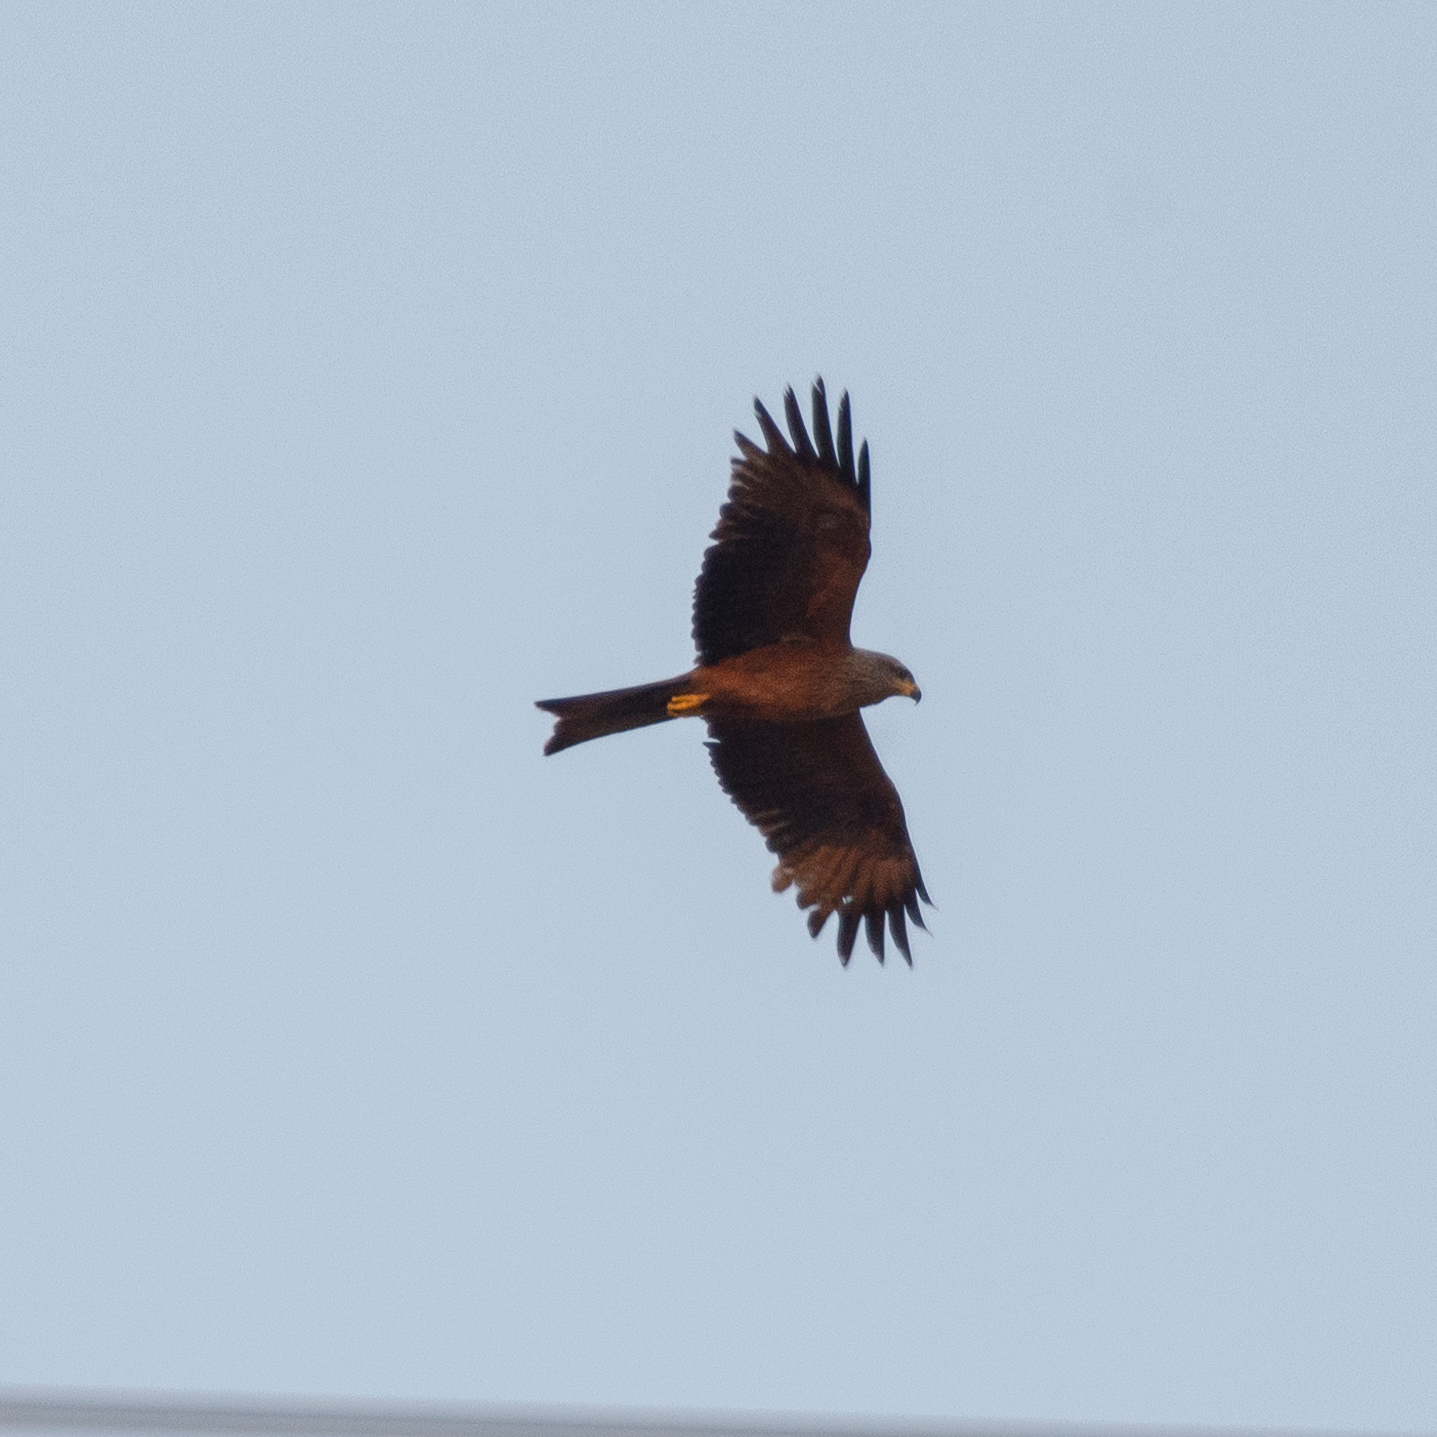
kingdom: Animalia
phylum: Chordata
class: Aves
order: Accipitriformes
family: Accipitridae
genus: Milvus
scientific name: Milvus migrans
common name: Black kite
